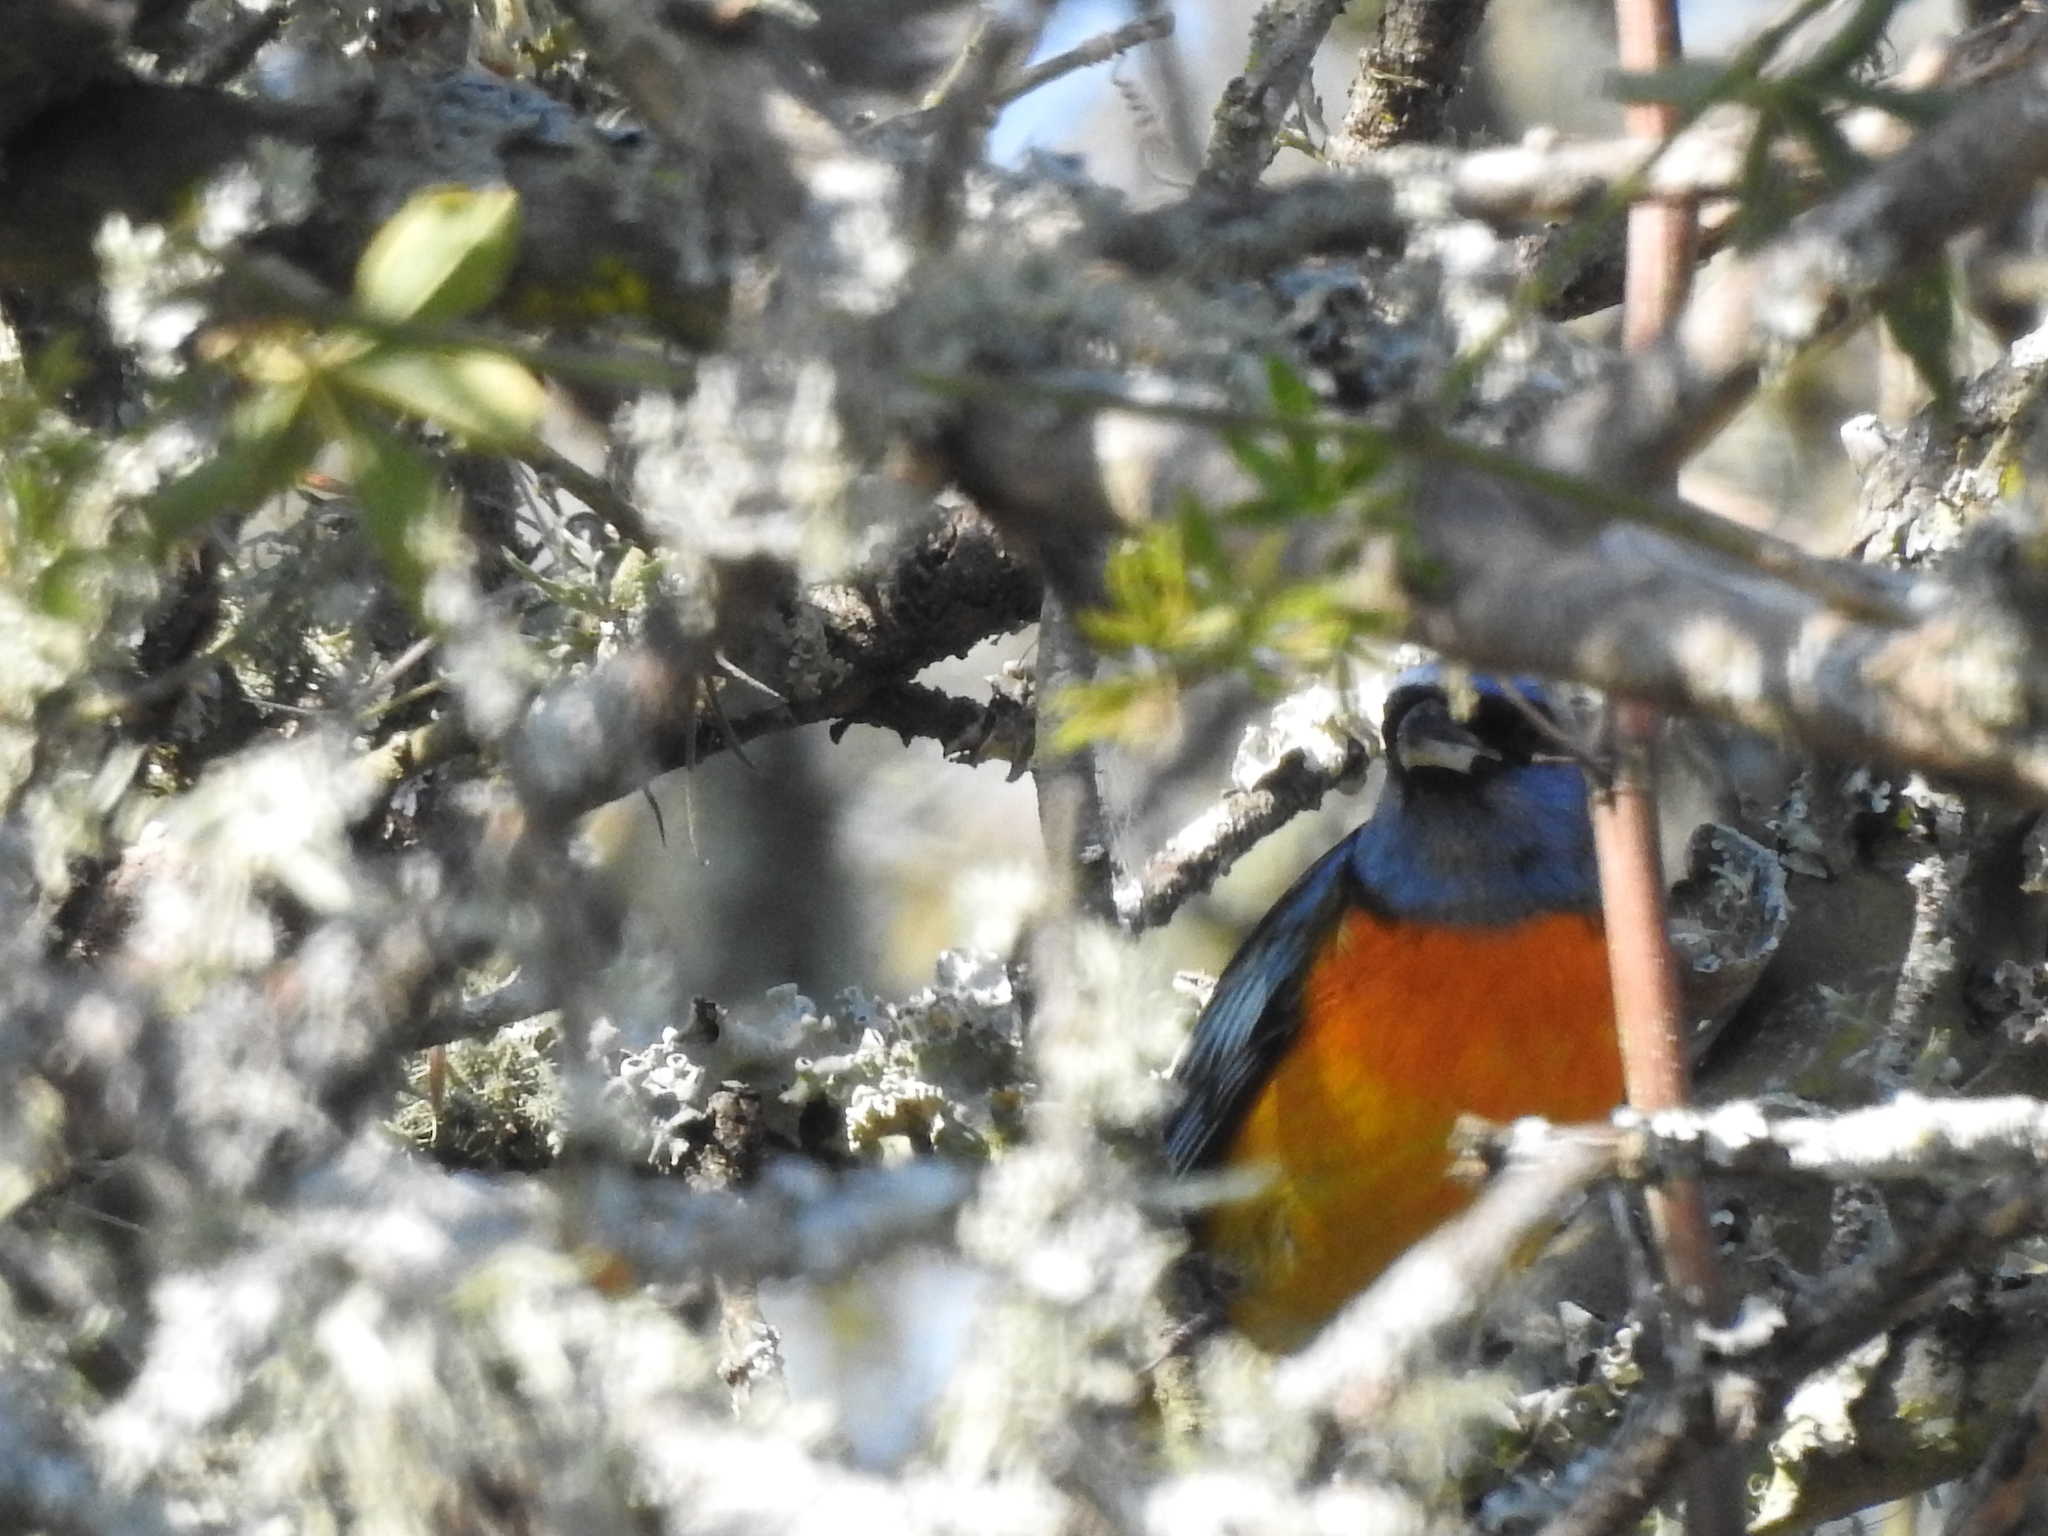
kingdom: Animalia
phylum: Chordata
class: Aves
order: Passeriformes
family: Thraupidae
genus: Rauenia
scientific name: Rauenia bonariensis
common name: Blue-and-yellow tanager
